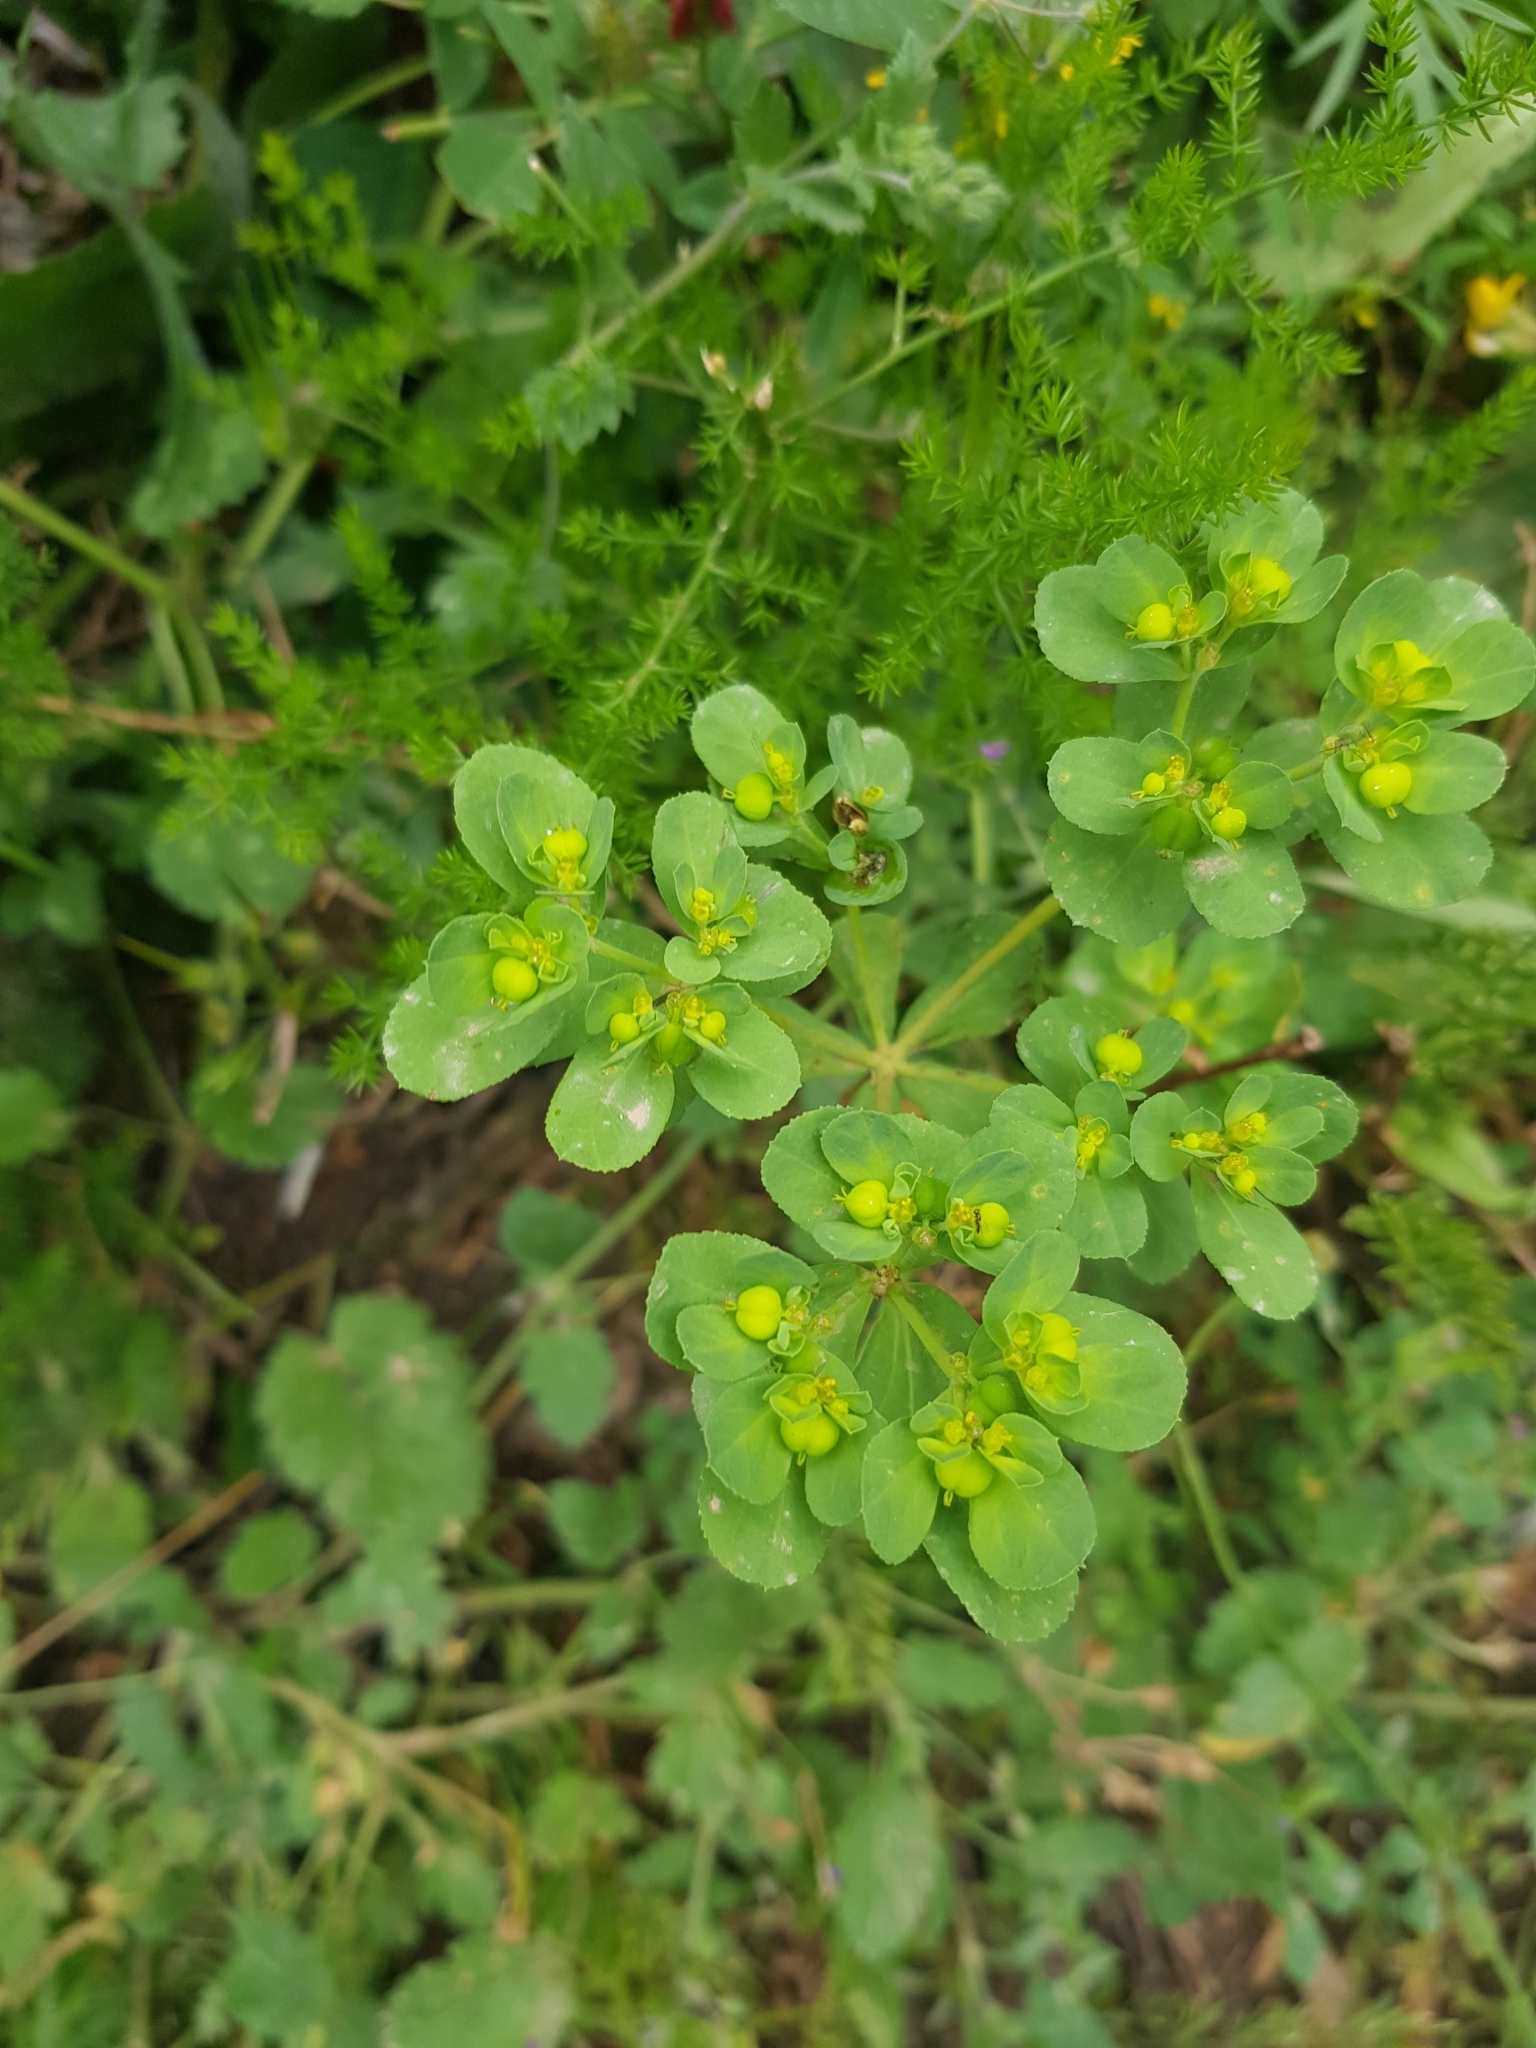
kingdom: Plantae
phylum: Tracheophyta
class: Magnoliopsida
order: Malpighiales
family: Euphorbiaceae
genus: Euphorbia
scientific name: Euphorbia helioscopia
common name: Sun spurge
